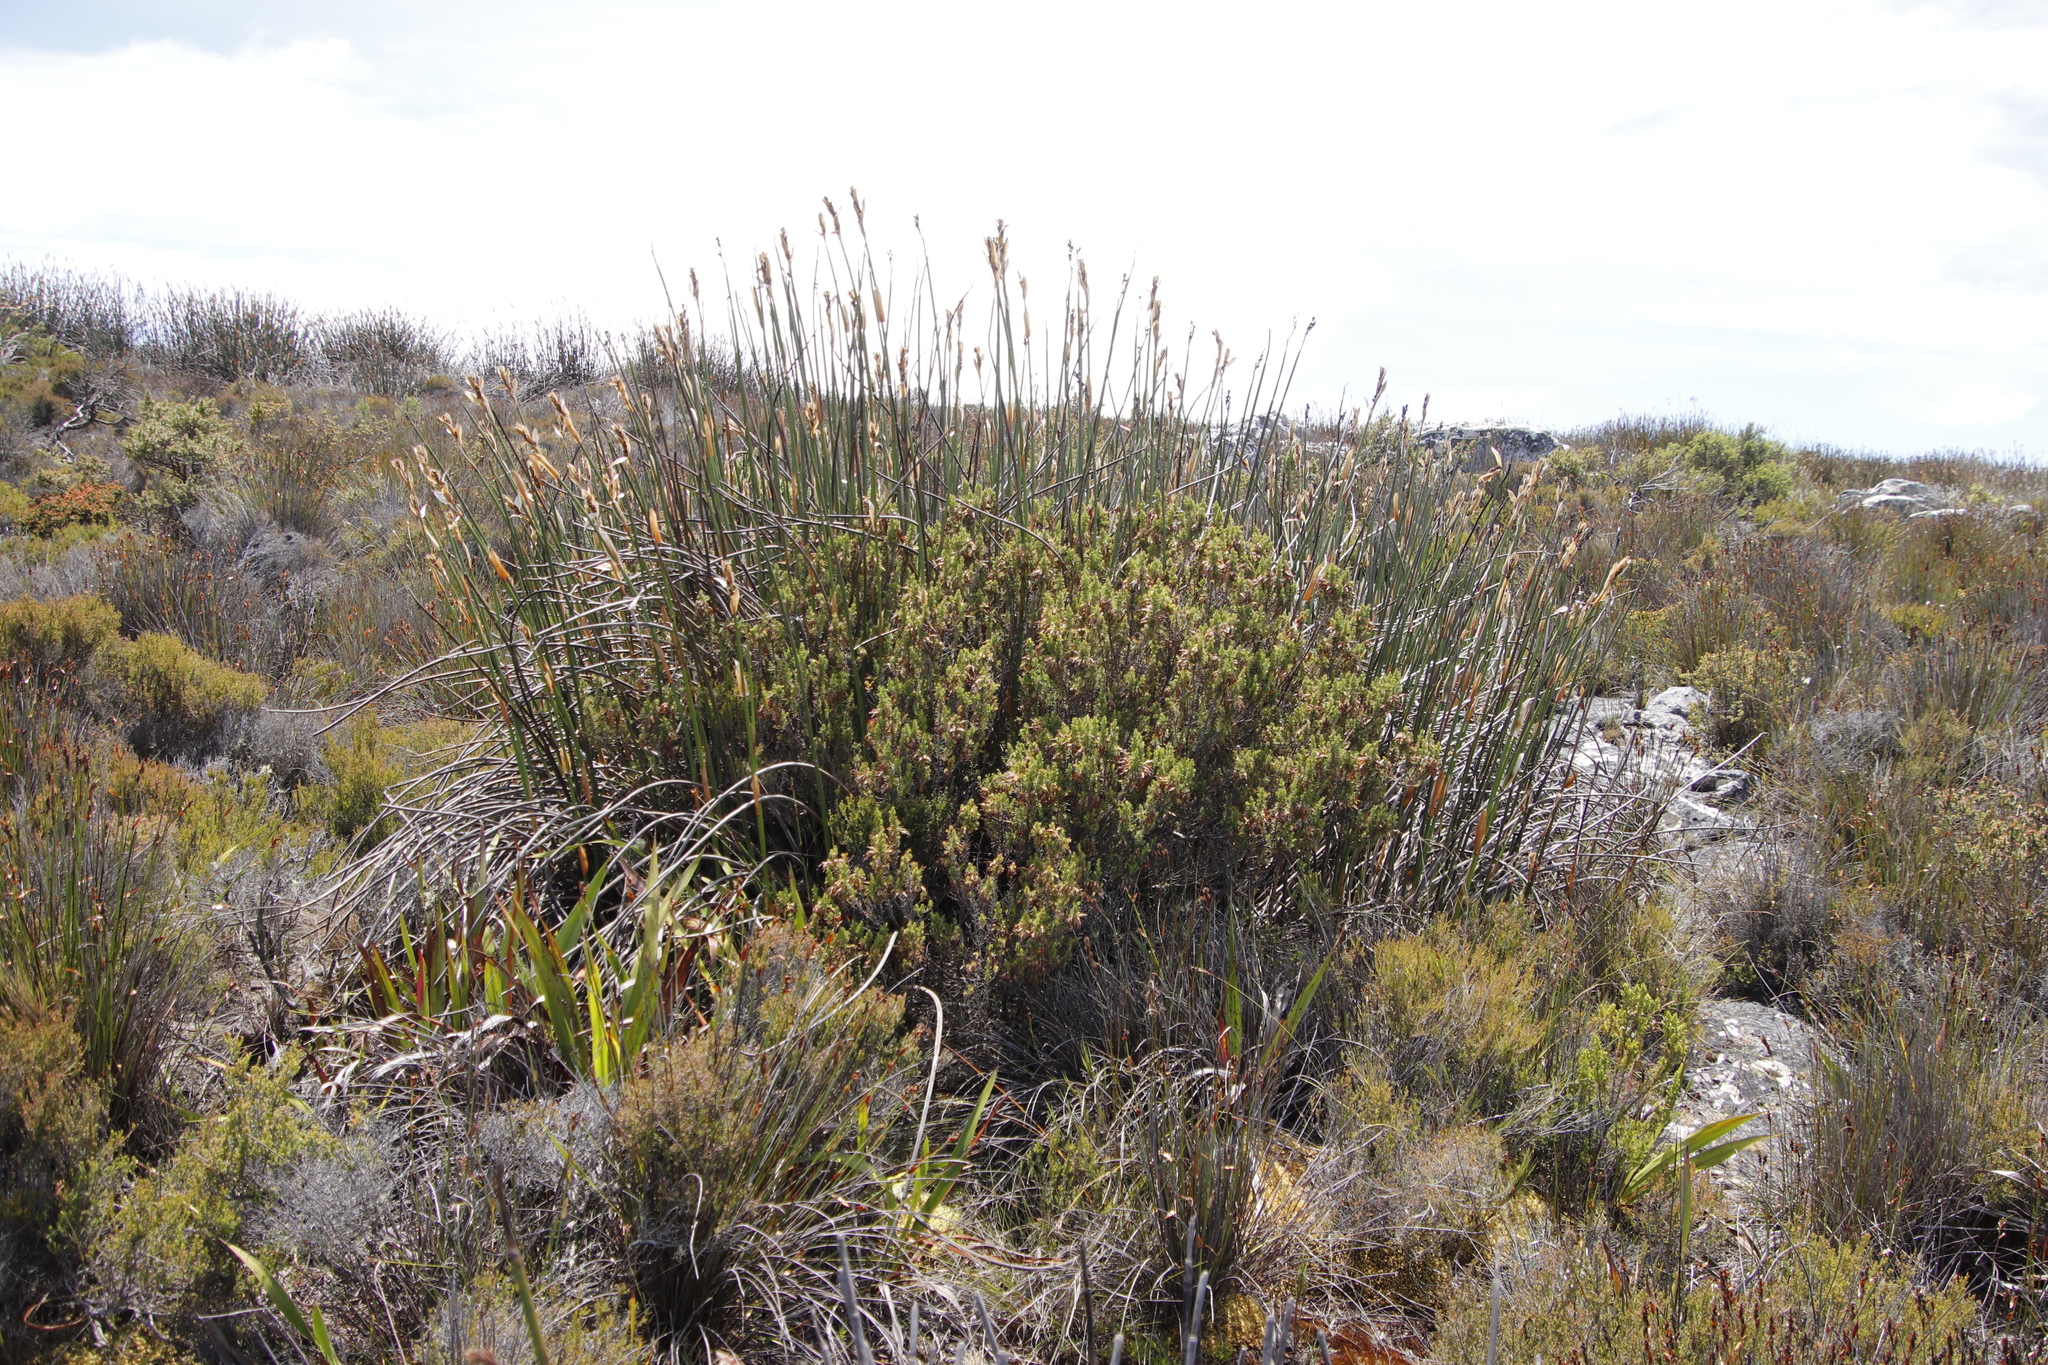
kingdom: Plantae
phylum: Tracheophyta
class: Magnoliopsida
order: Ericales
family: Ericaceae
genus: Erica
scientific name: Erica coccinea
